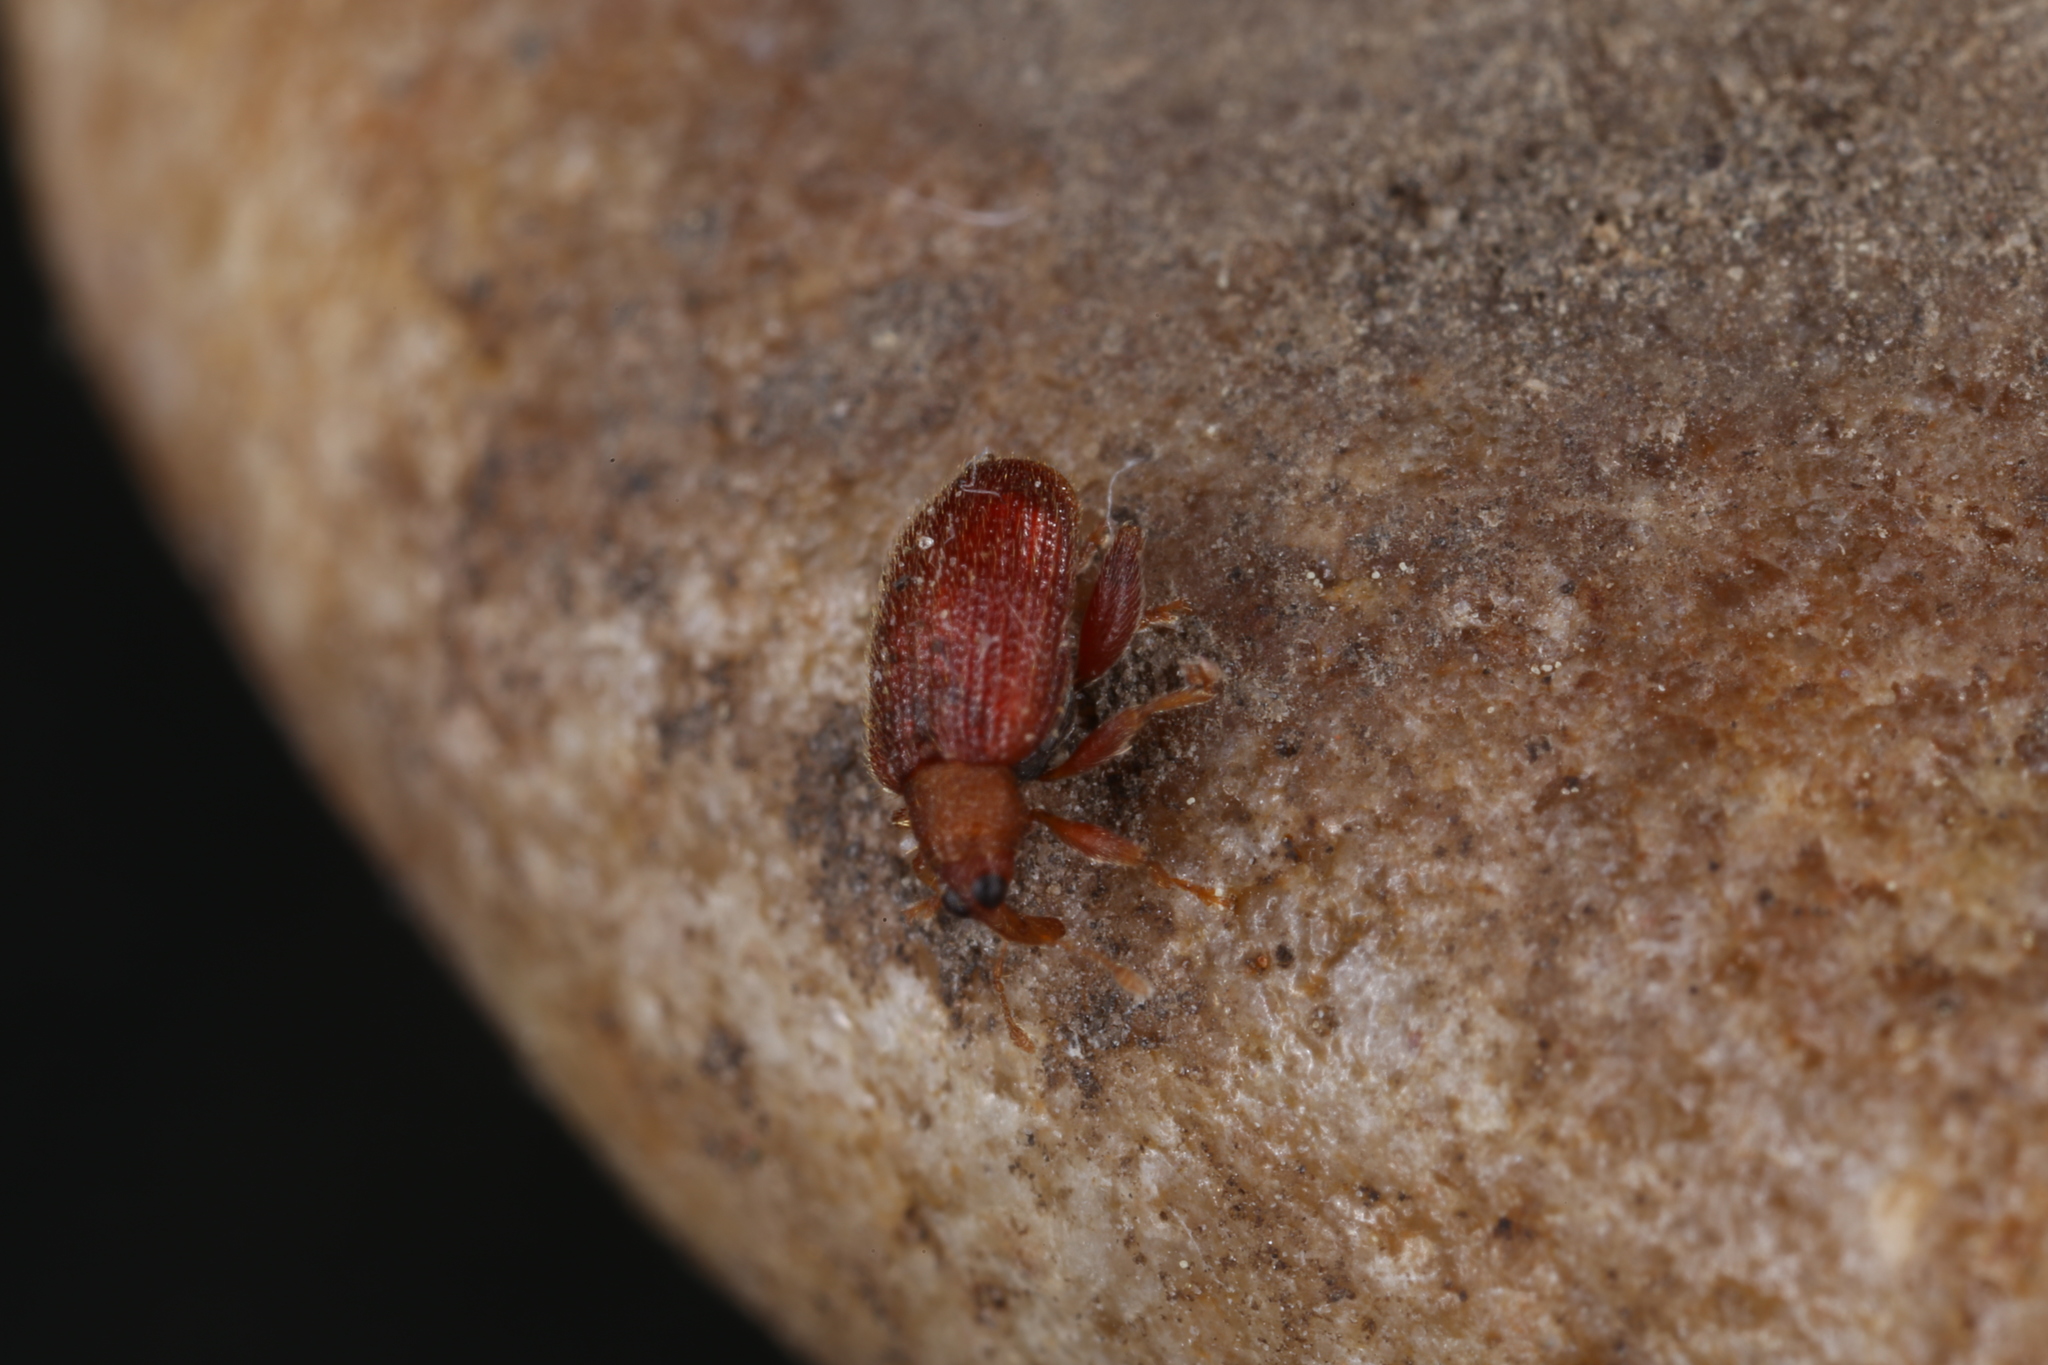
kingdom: Animalia
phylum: Arthropoda
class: Insecta
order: Coleoptera
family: Curculionidae
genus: Orchestes
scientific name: Orchestes betuleti
